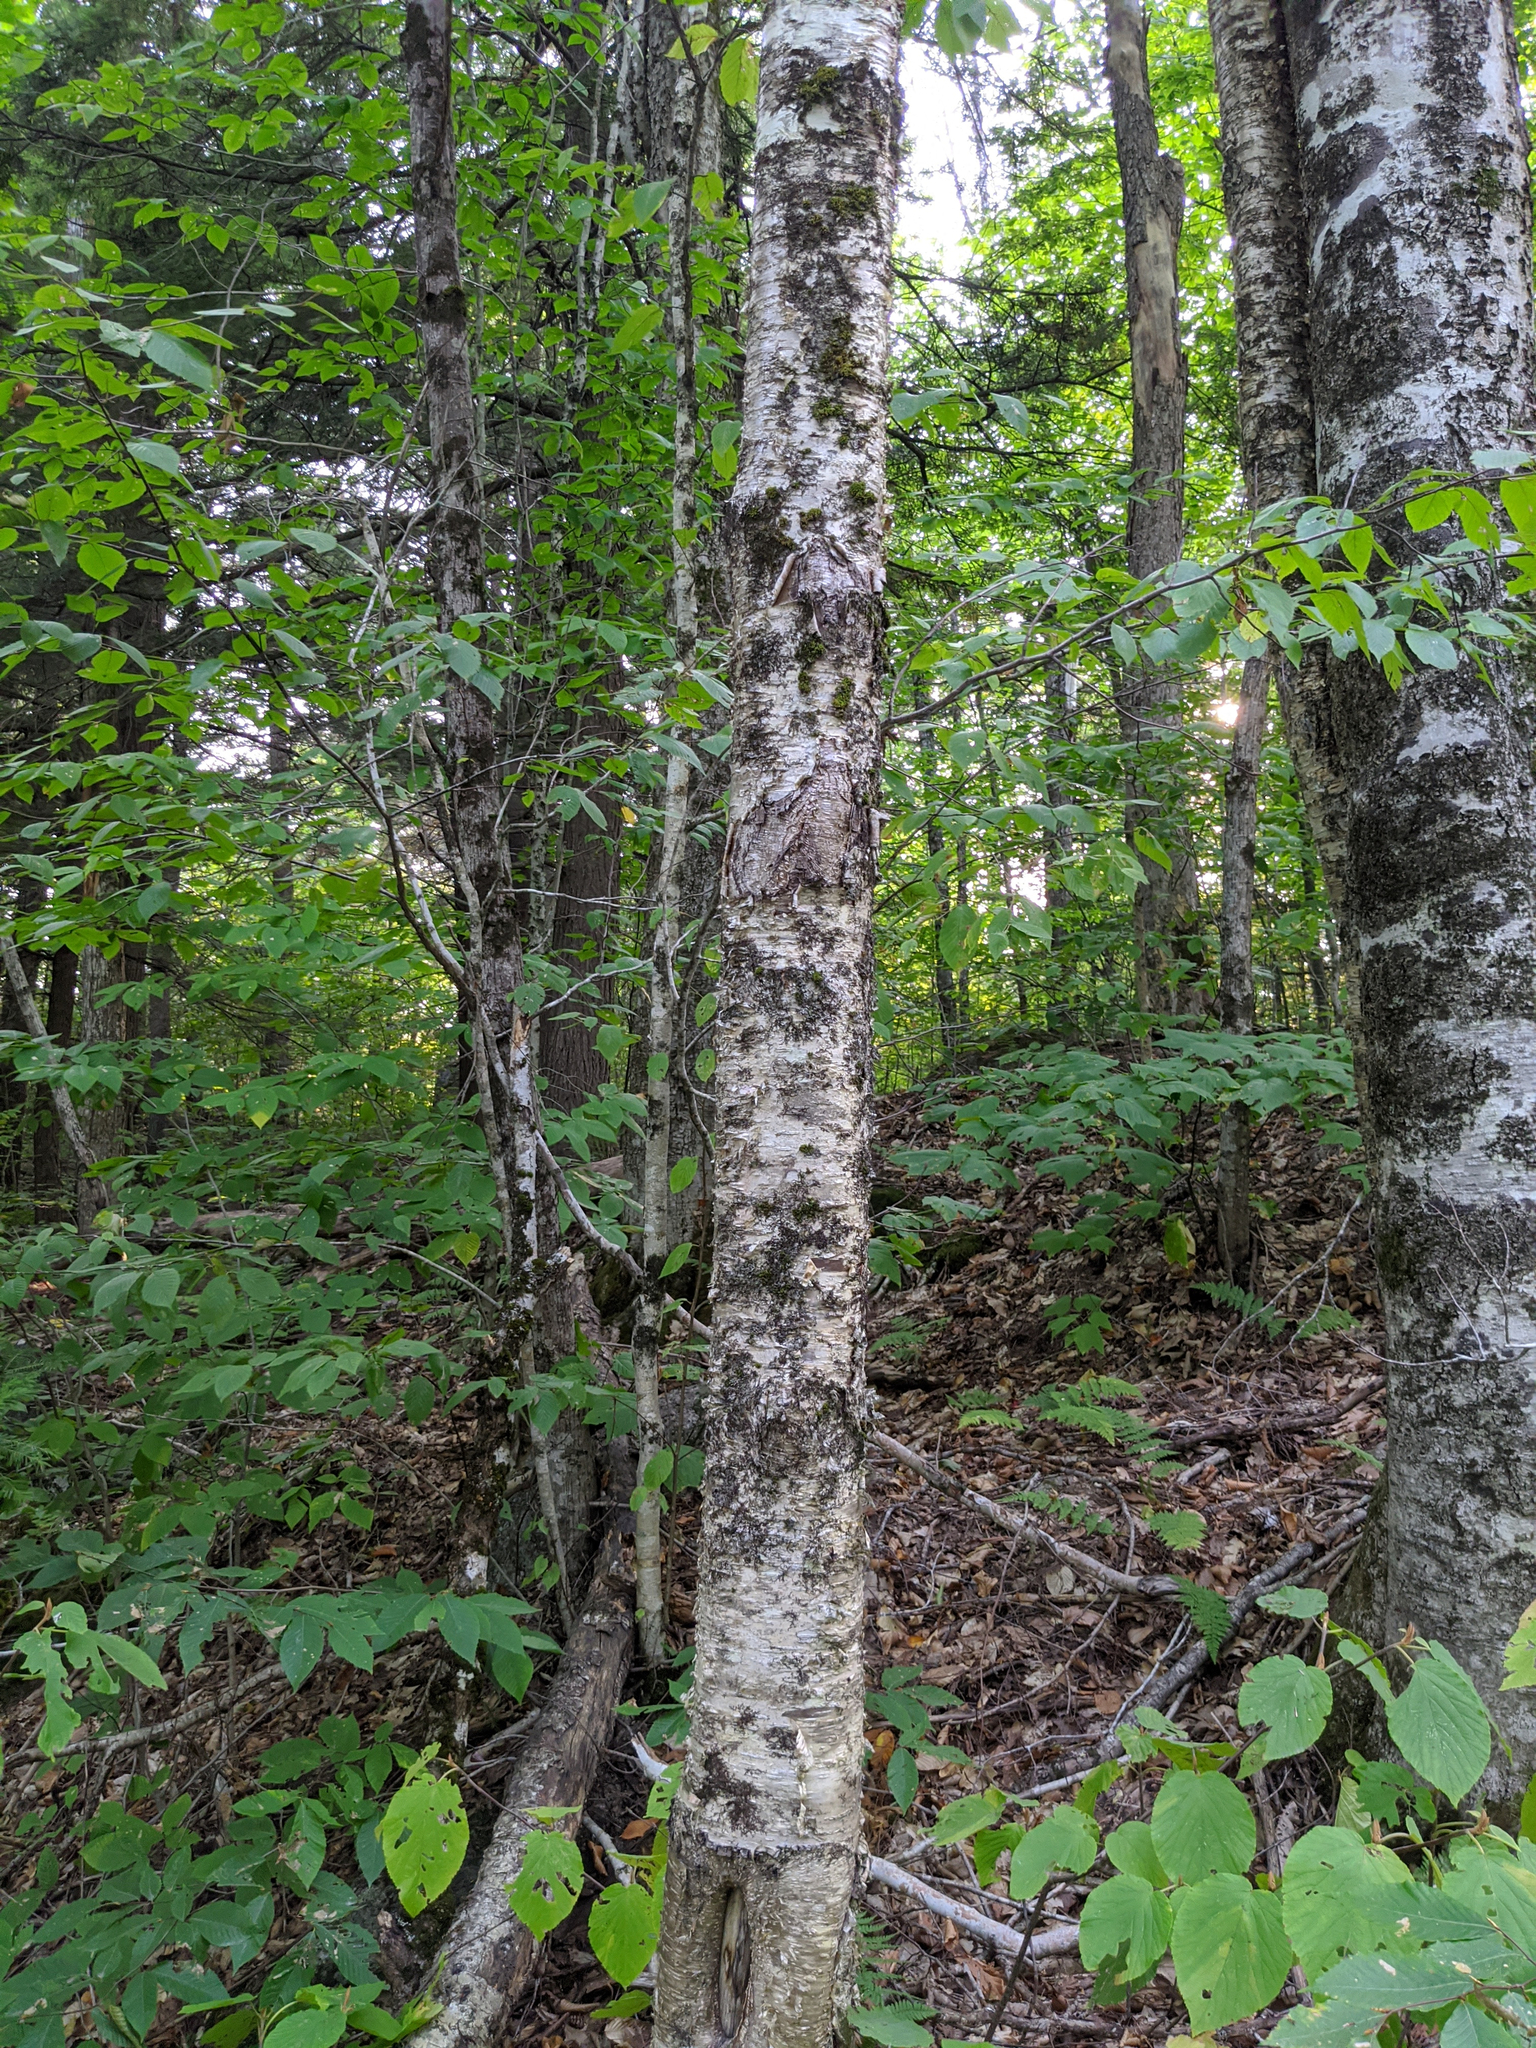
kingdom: Plantae
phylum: Tracheophyta
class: Magnoliopsida
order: Fagales
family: Betulaceae
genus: Betula
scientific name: Betula alleghaniensis
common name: Yellow birch
